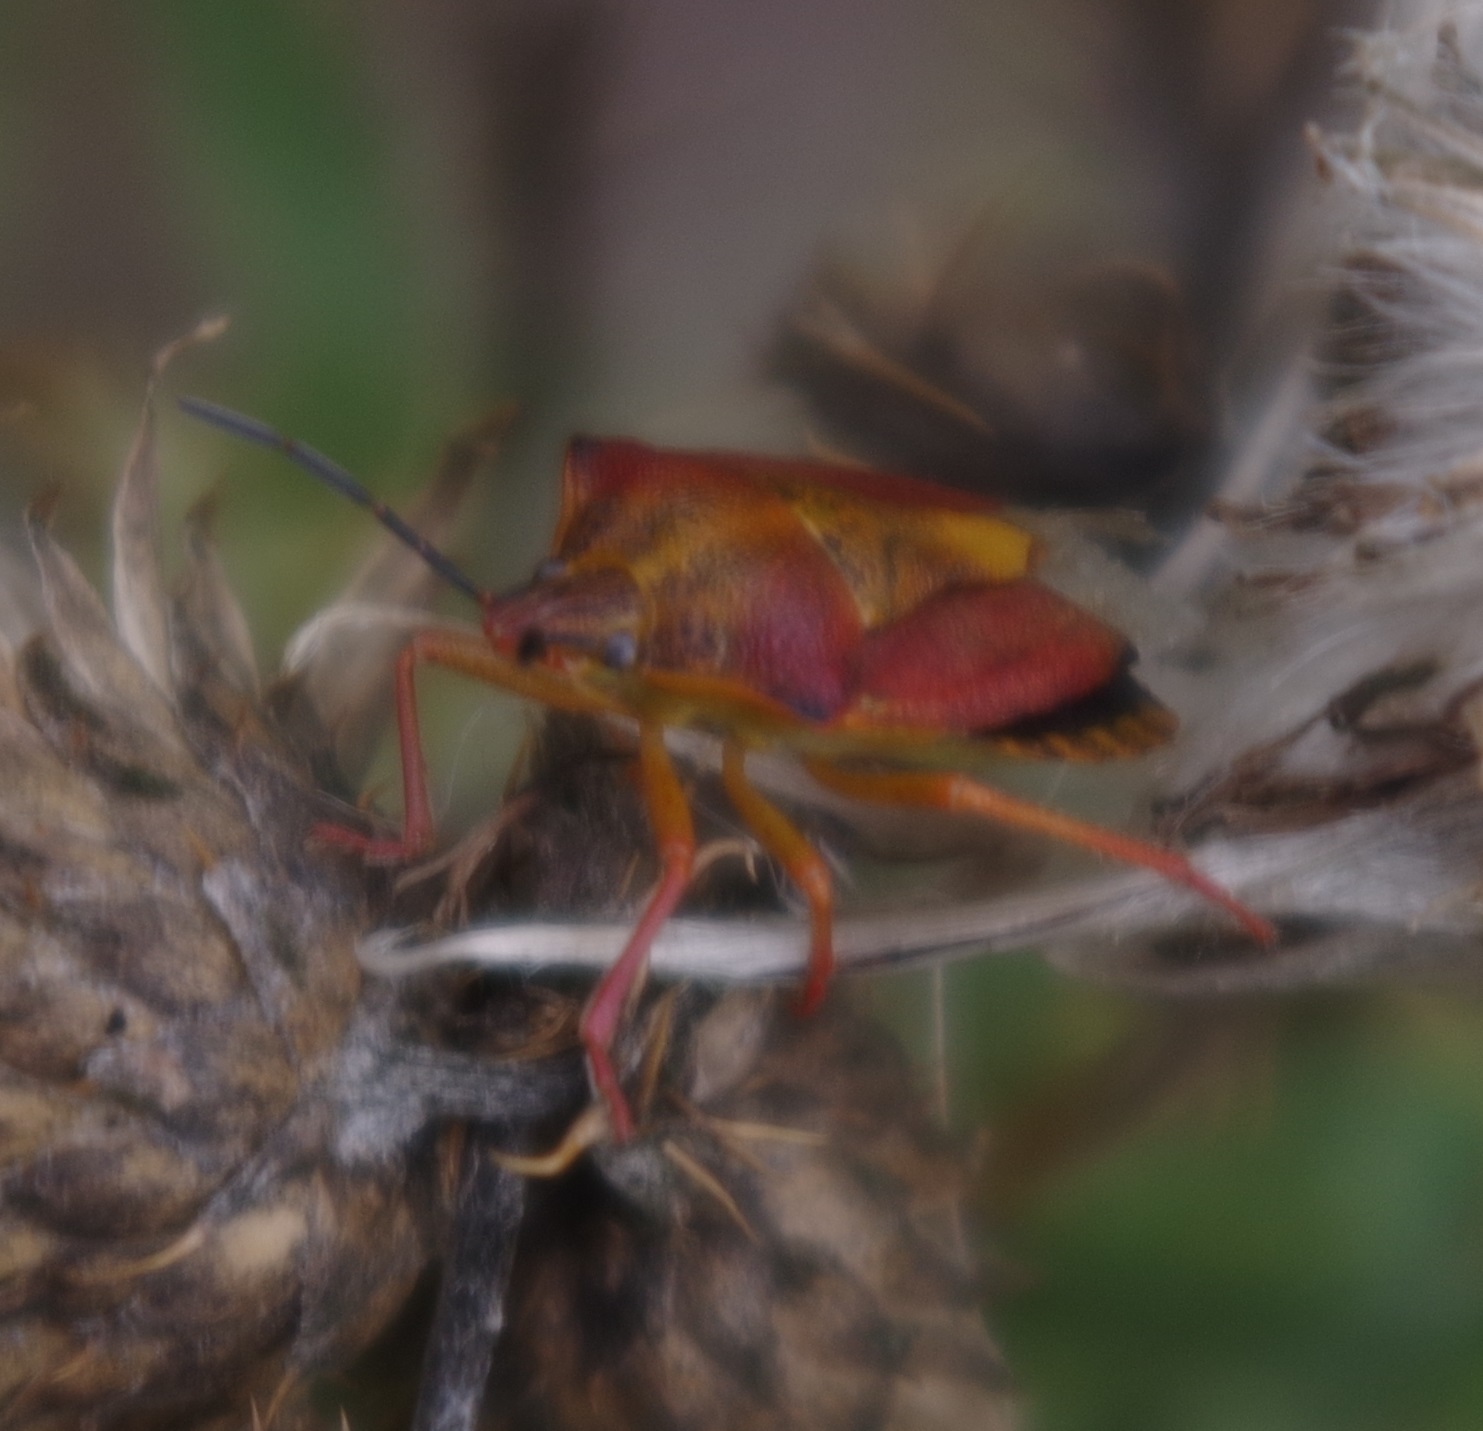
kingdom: Animalia
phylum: Arthropoda
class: Insecta
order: Hemiptera
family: Pentatomidae
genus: Carpocoris
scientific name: Carpocoris purpureipennis
